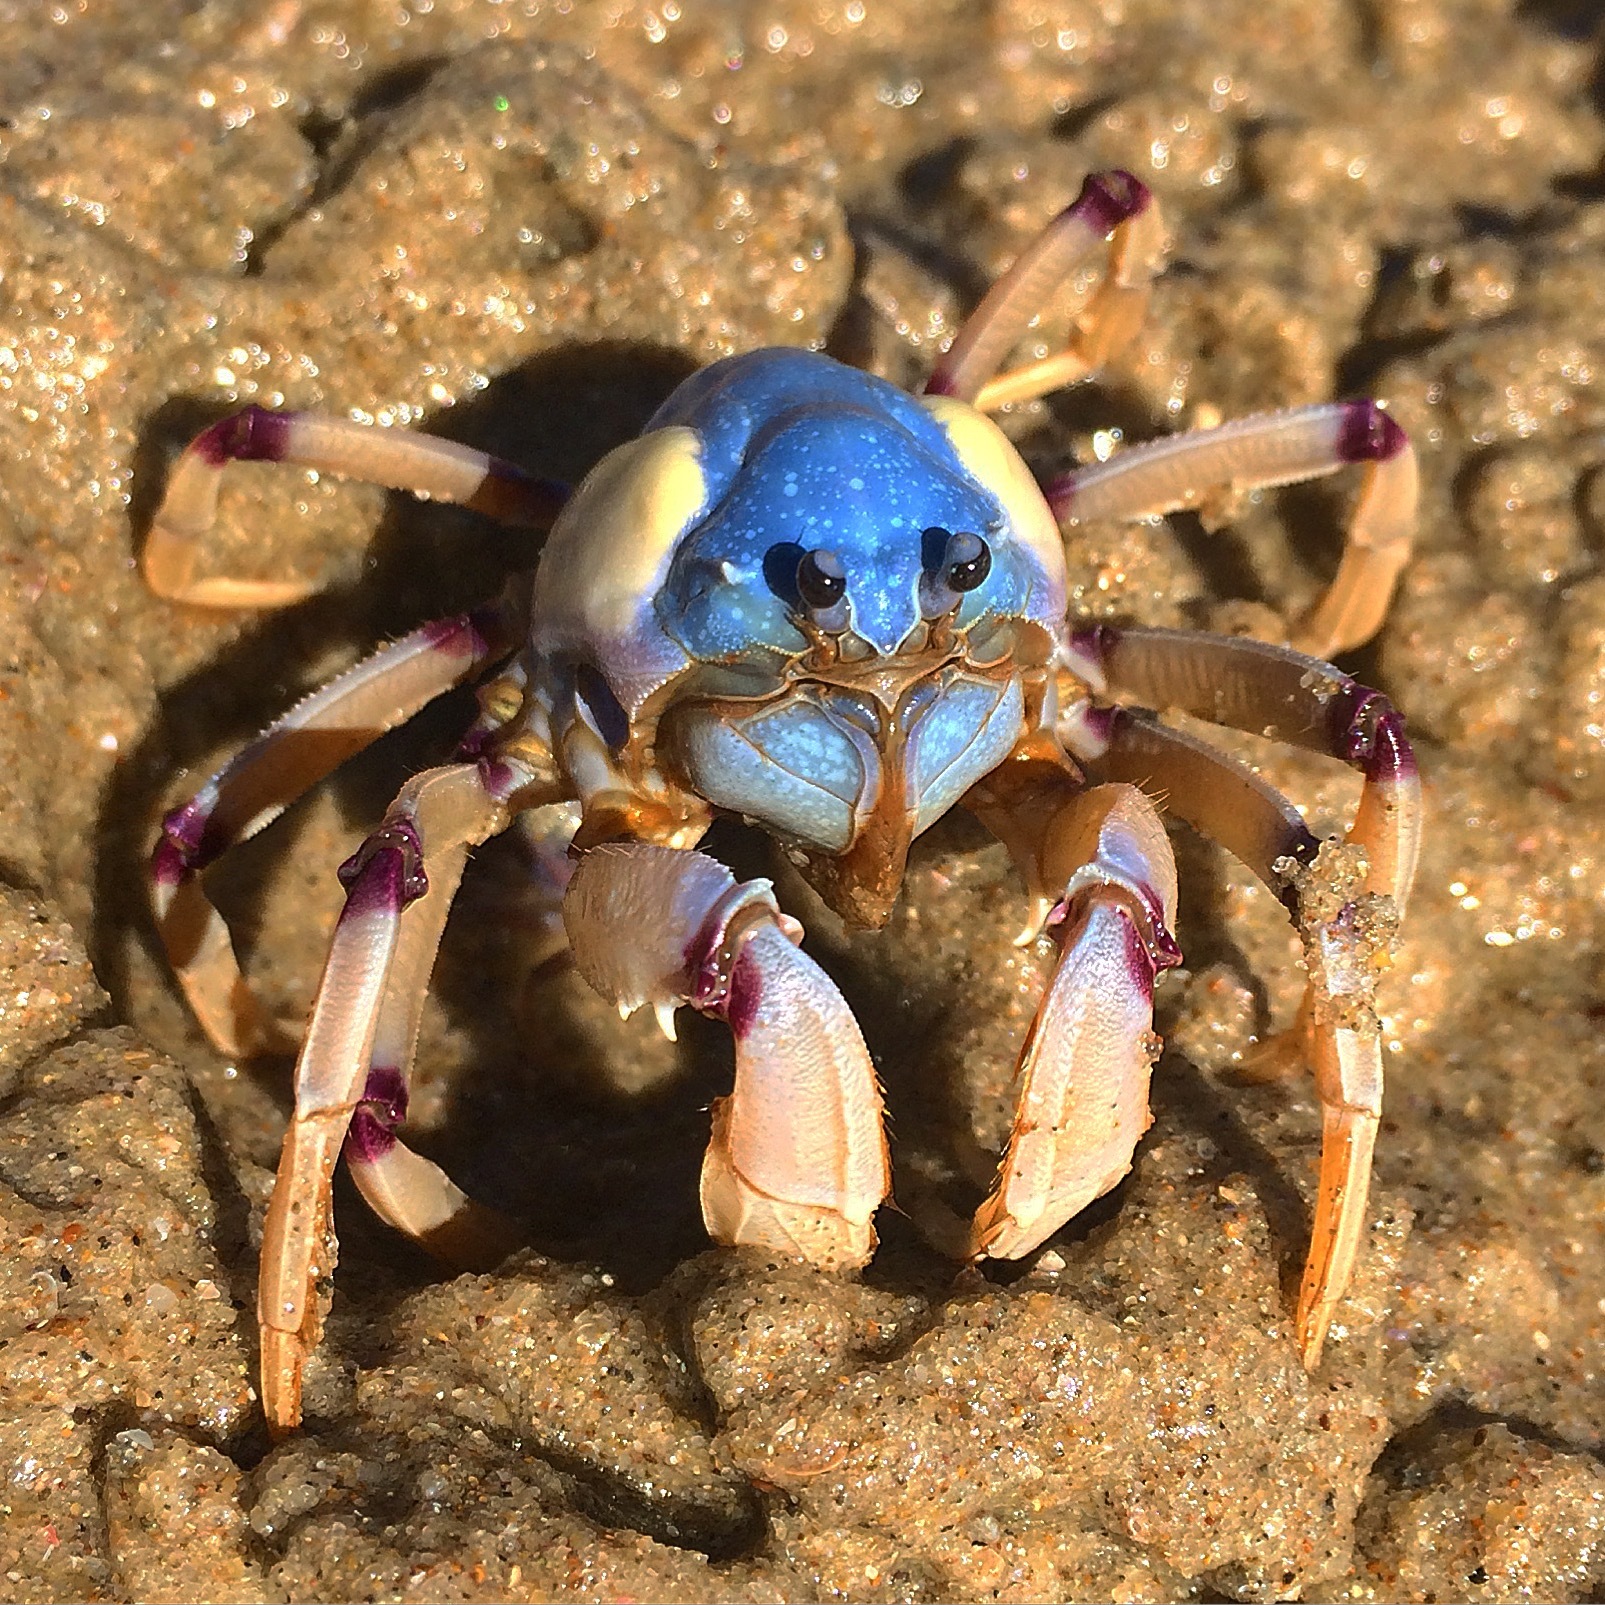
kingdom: Animalia
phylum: Arthropoda
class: Malacostraca
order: Decapoda
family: Mictyridae
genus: Mictyris
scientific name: Mictyris longicarpus
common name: Light-blue soldier crab
